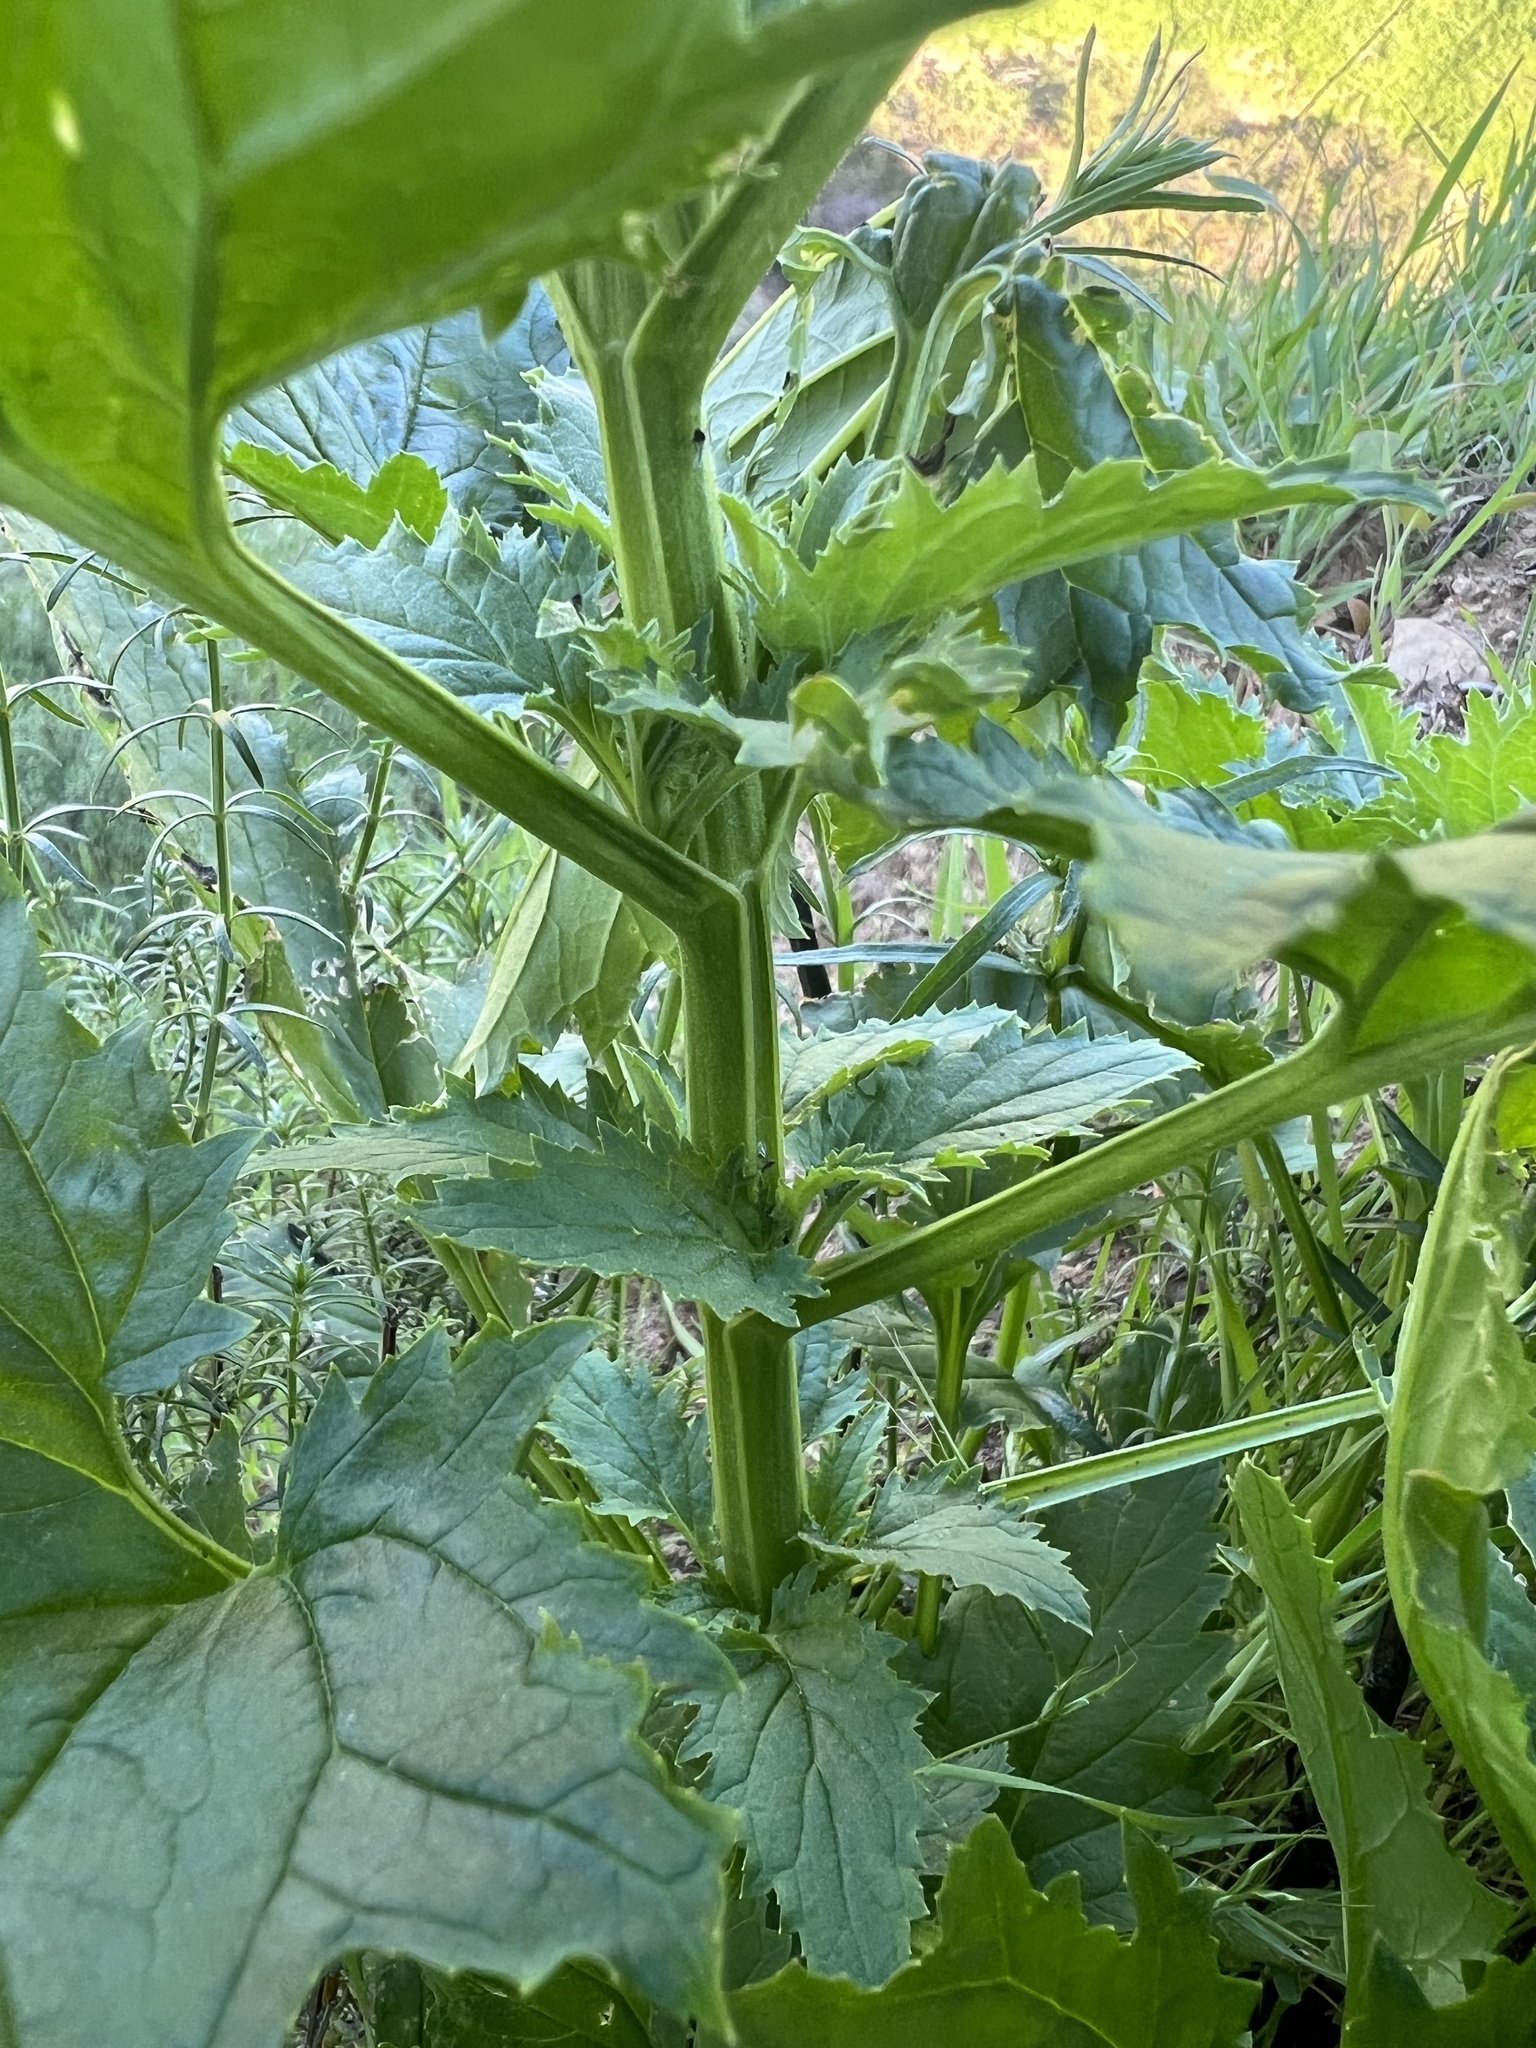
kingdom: Plantae
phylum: Tracheophyta
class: Magnoliopsida
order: Lamiales
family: Scrophulariaceae
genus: Scrophularia
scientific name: Scrophularia californica
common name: California figwort
